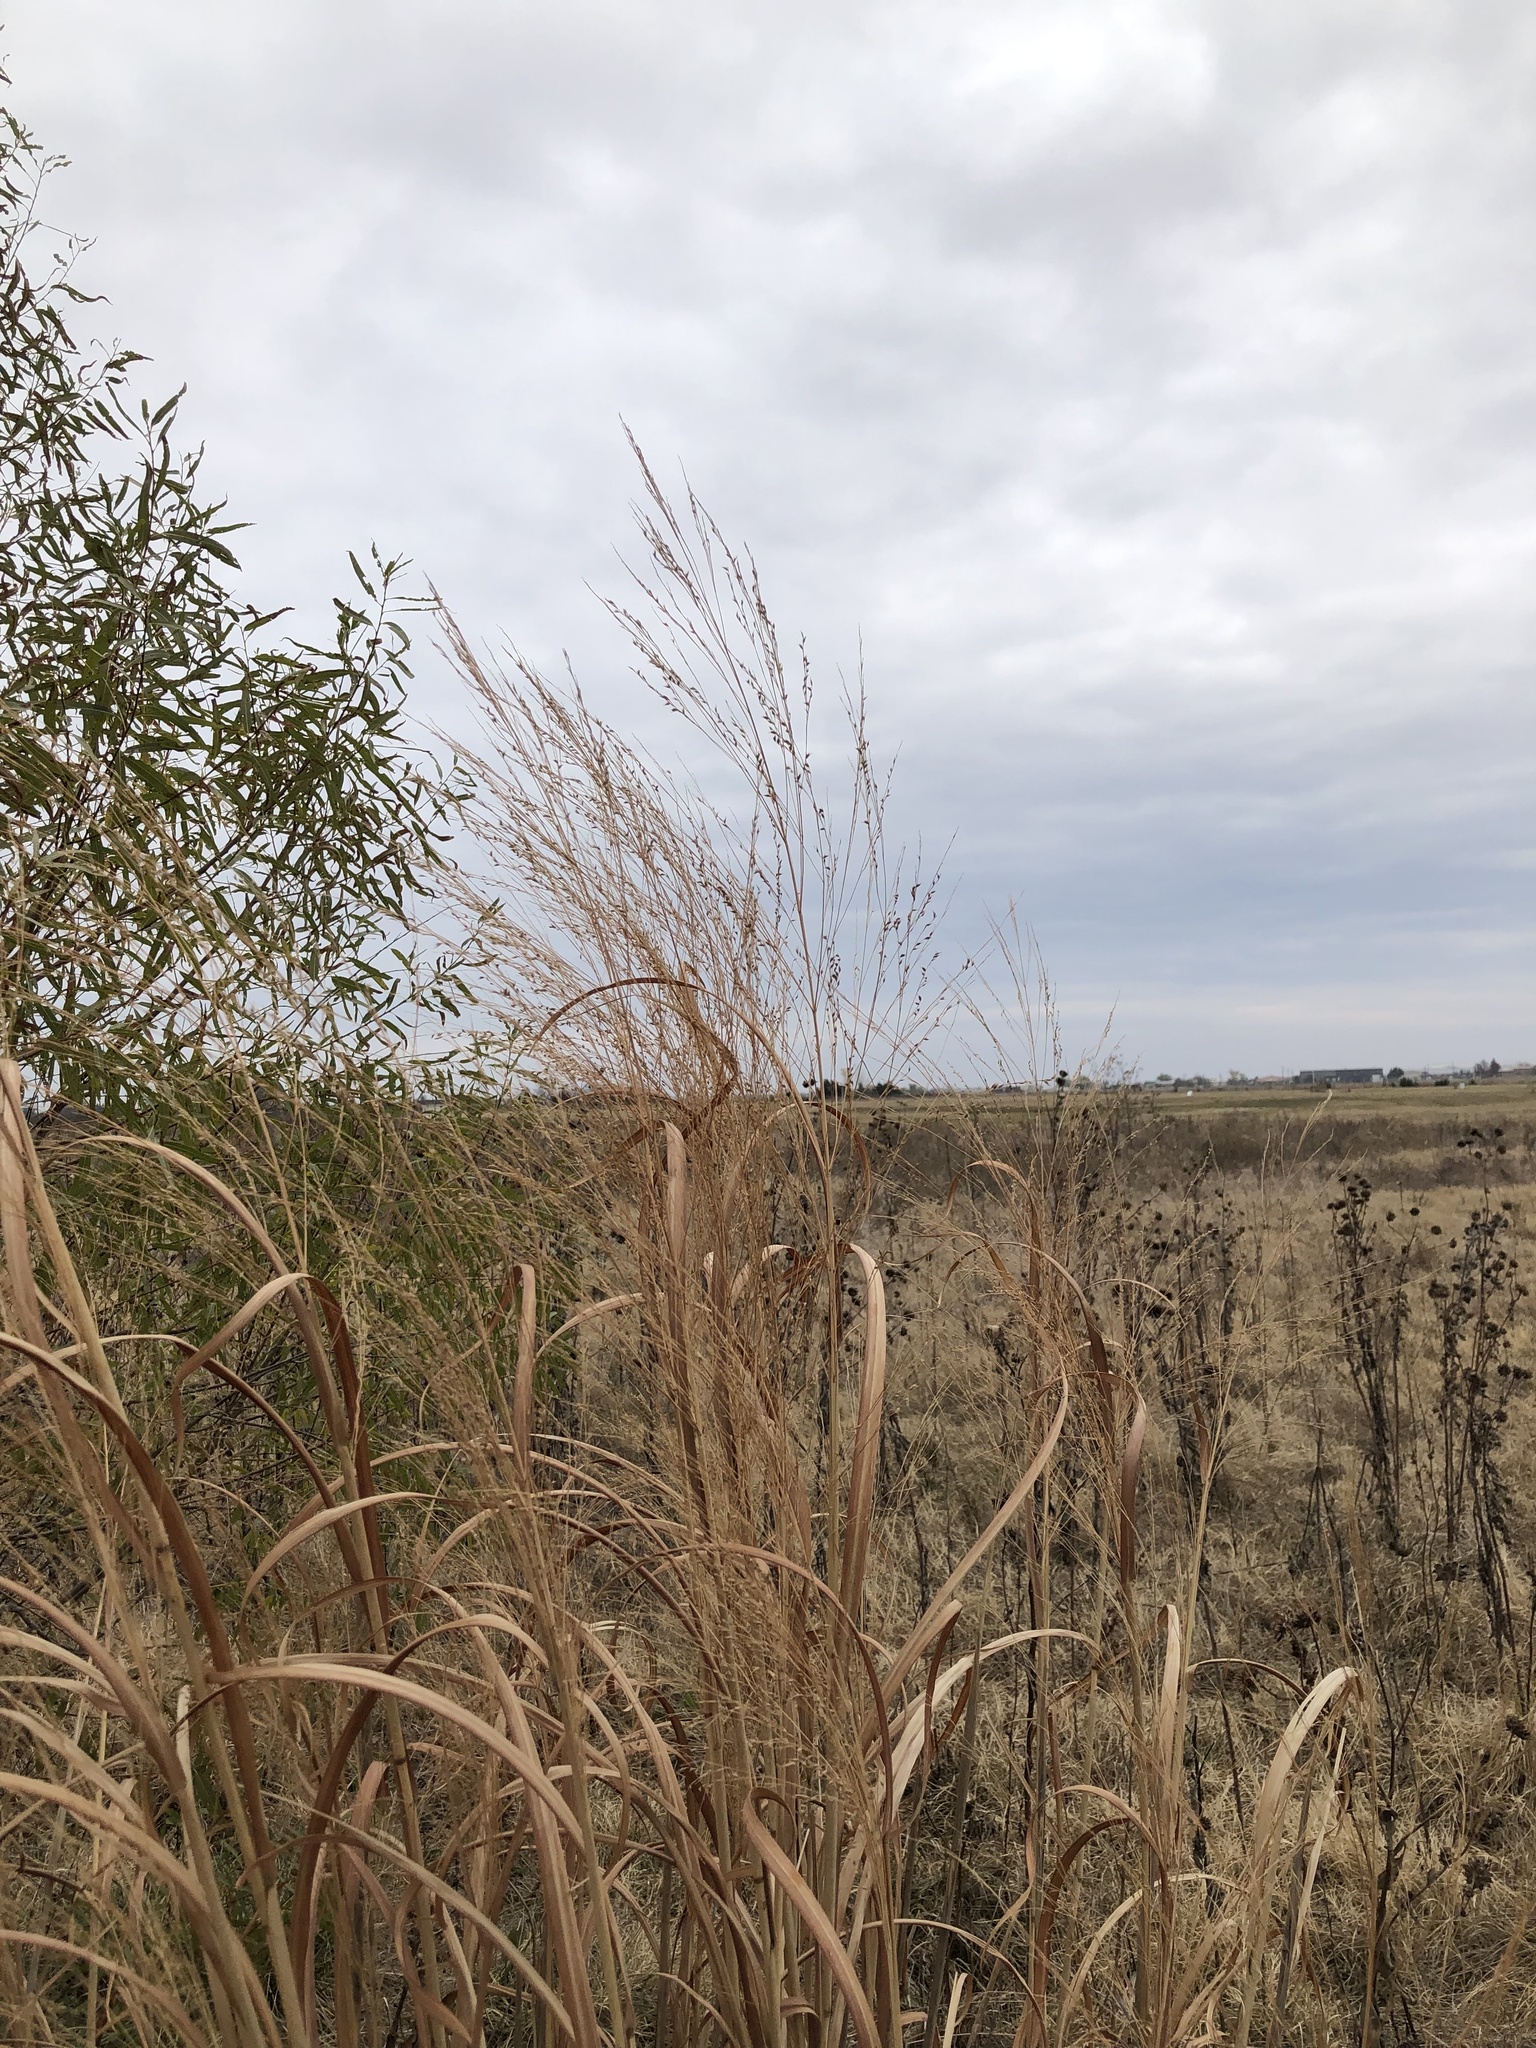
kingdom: Plantae
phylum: Tracheophyta
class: Liliopsida
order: Poales
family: Poaceae
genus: Panicum
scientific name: Panicum virgatum
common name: Switchgrass
